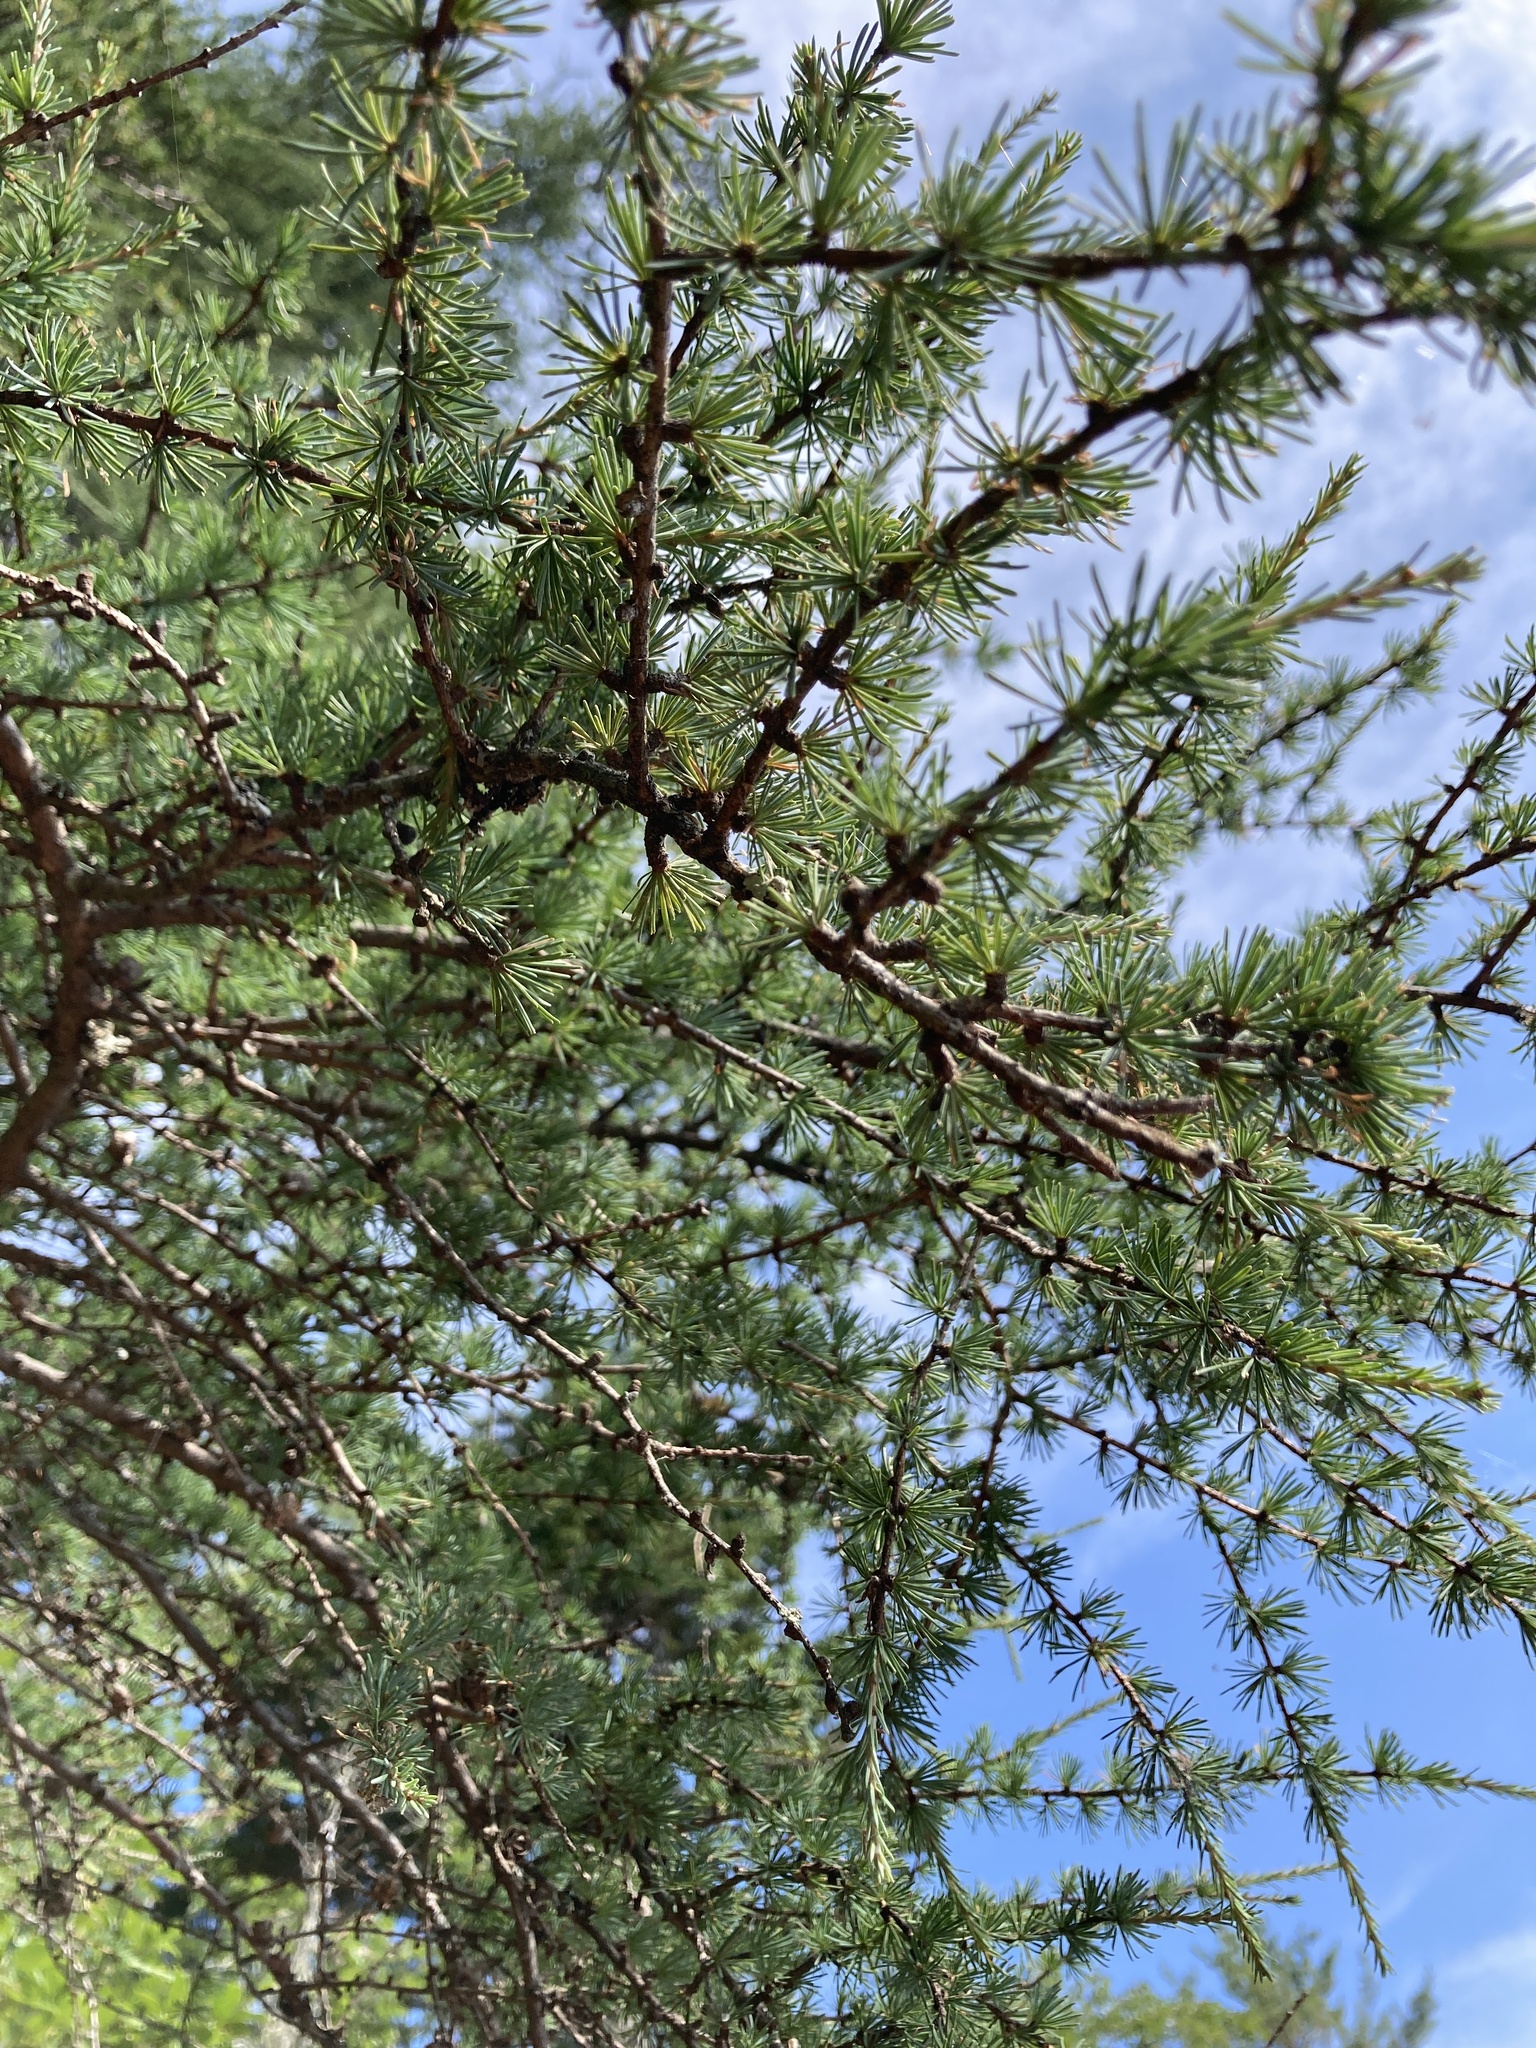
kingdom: Plantae
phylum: Tracheophyta
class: Pinopsida
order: Pinales
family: Pinaceae
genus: Larix
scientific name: Larix laricina
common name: American larch
